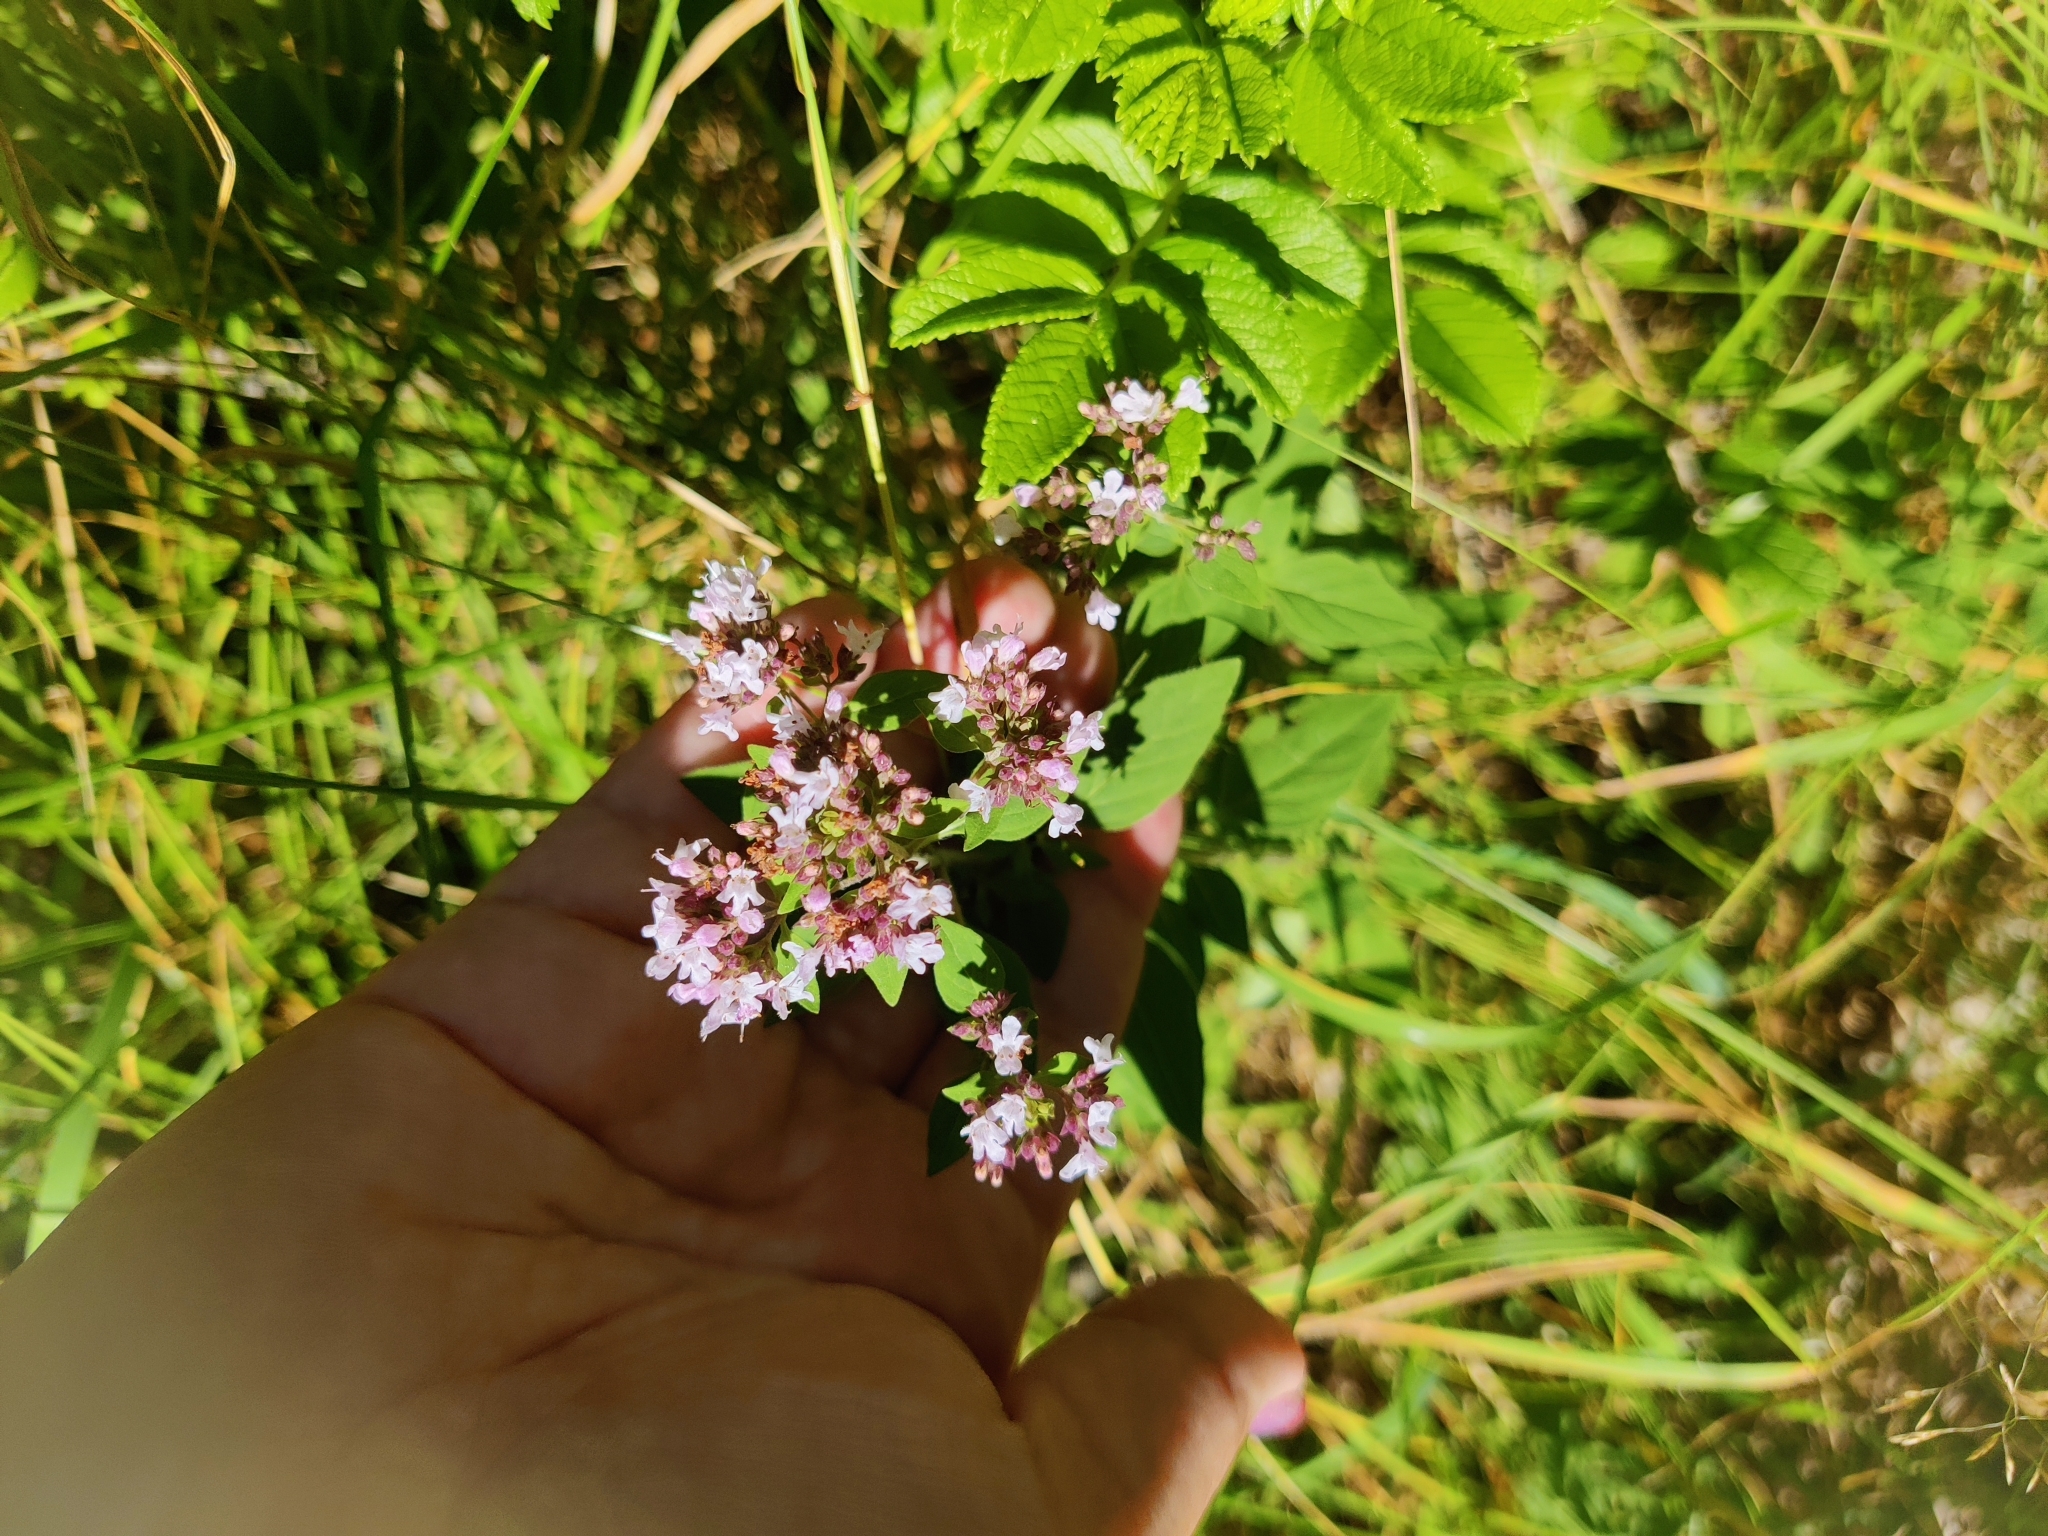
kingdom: Plantae
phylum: Tracheophyta
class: Magnoliopsida
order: Lamiales
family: Lamiaceae
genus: Origanum
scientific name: Origanum vulgare
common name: Wild marjoram
